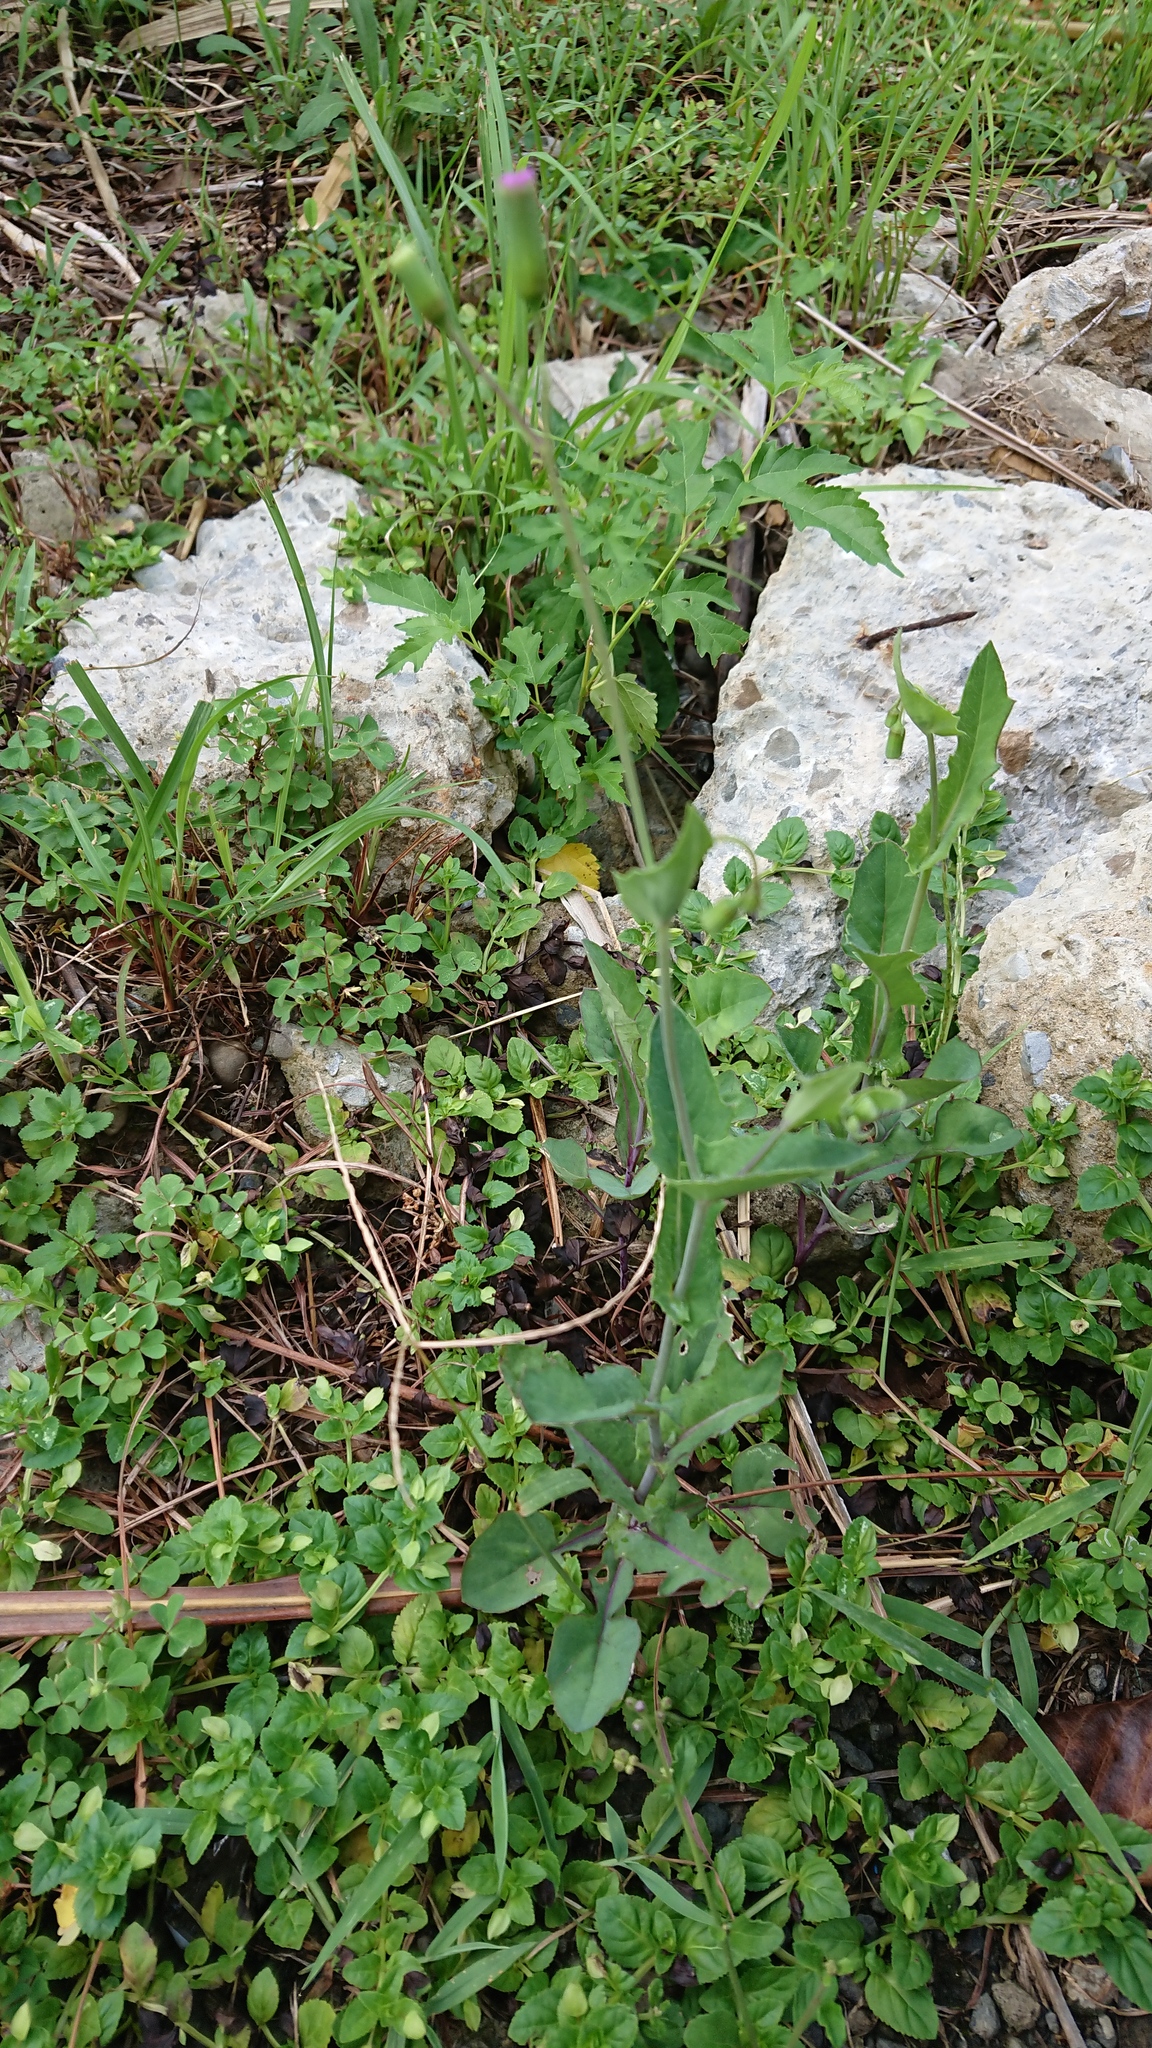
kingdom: Plantae
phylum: Tracheophyta
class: Magnoliopsida
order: Asterales
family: Asteraceae
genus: Emilia
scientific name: Emilia javanica
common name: Tassel-flower
